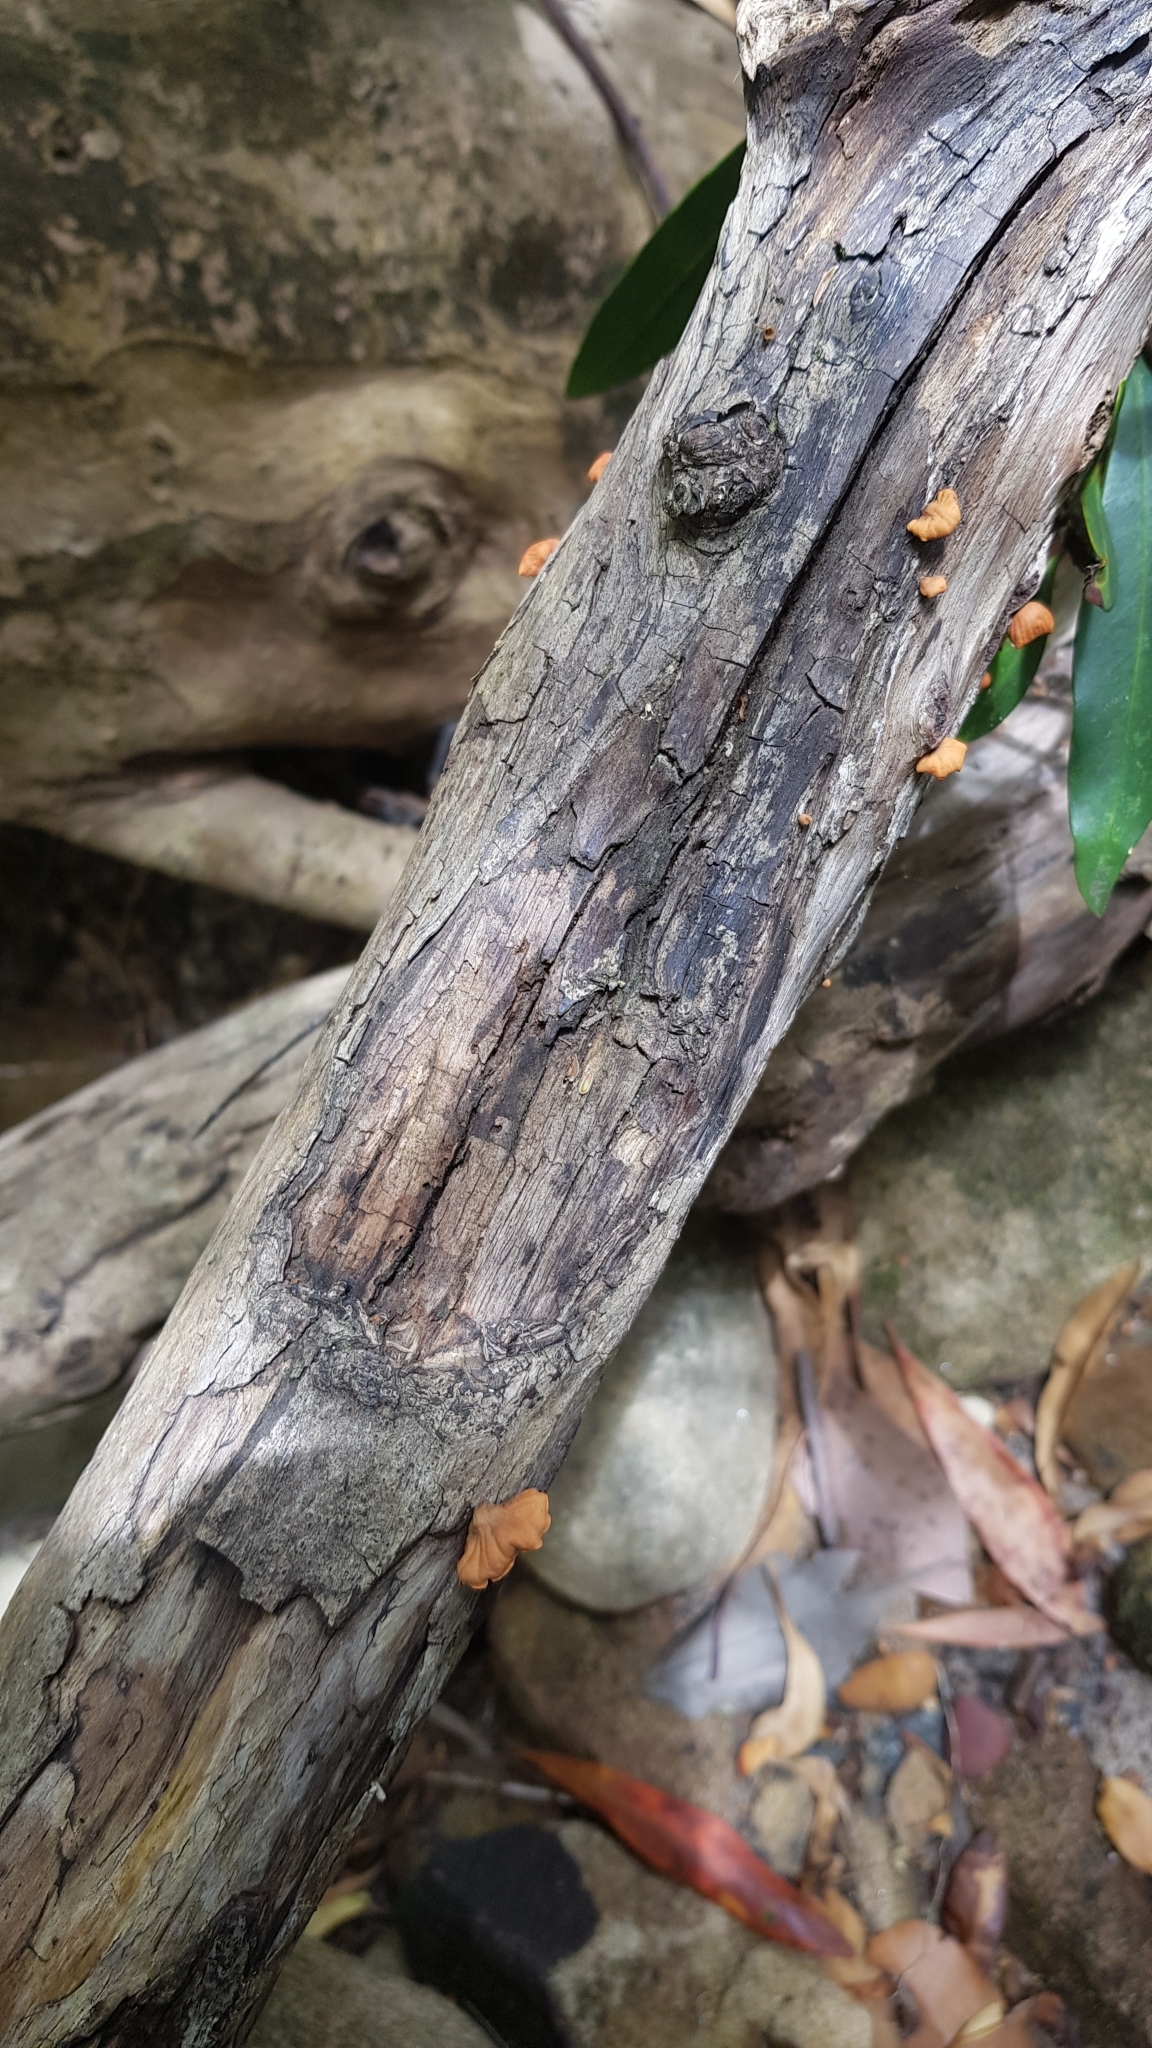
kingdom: Fungi
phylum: Basidiomycota
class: Agaricomycetes
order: Agaricales
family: Omphalotaceae
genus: Anthracophyllum
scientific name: Anthracophyllum archeri
